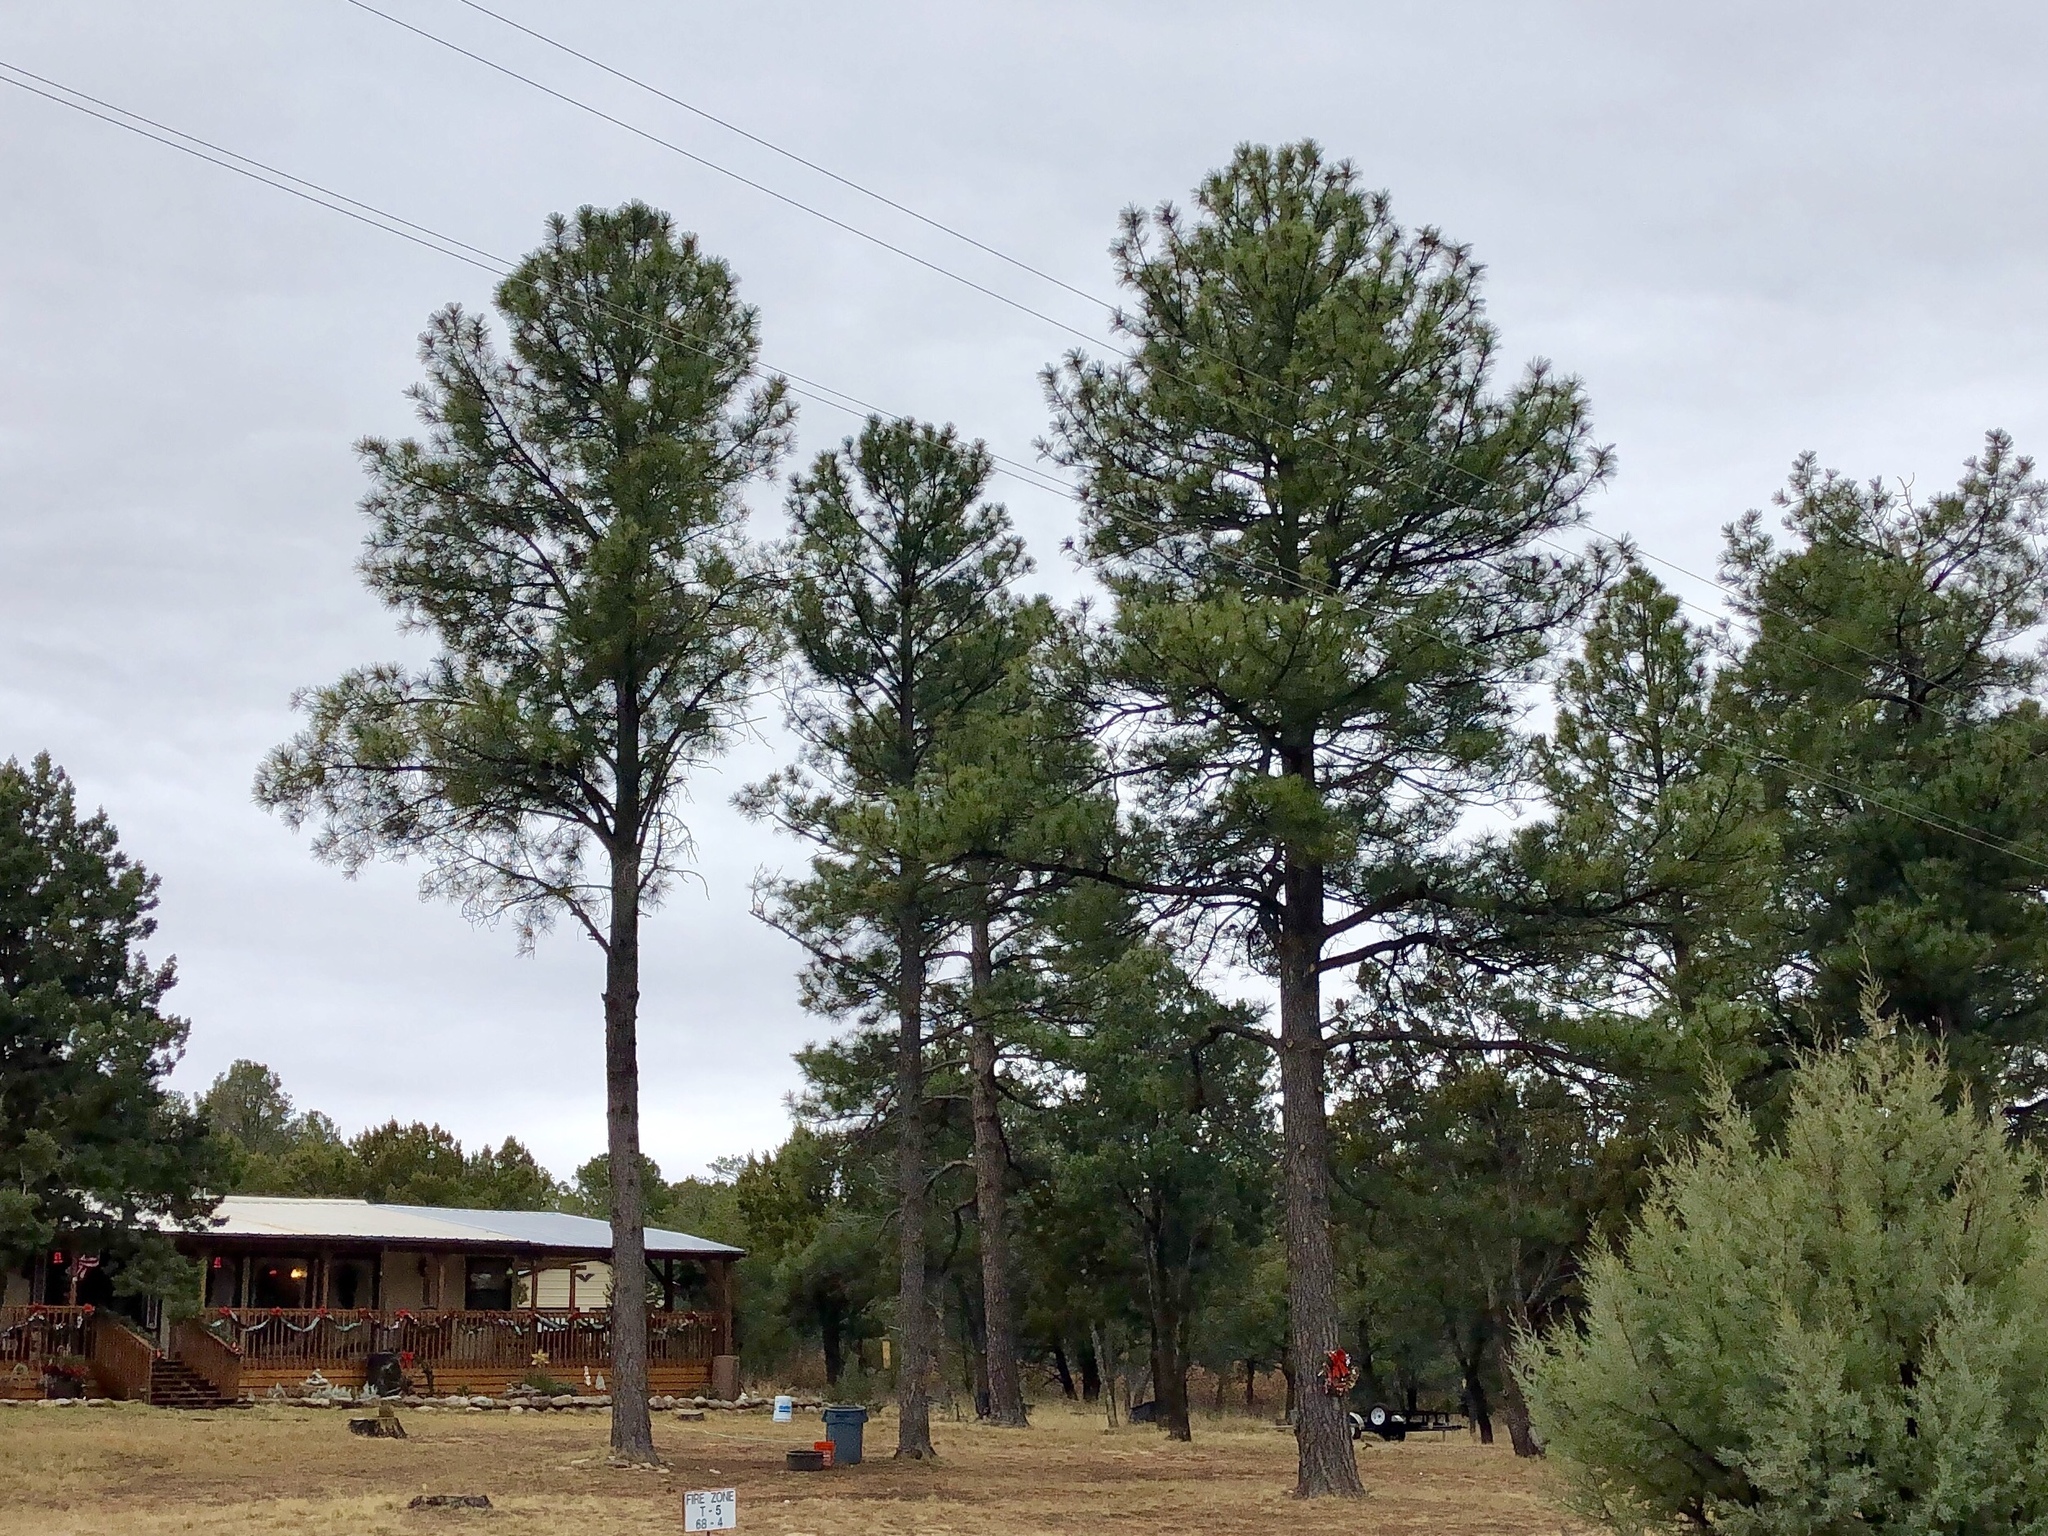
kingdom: Plantae
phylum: Tracheophyta
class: Pinopsida
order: Pinales
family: Pinaceae
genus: Pinus
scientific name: Pinus ponderosa
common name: Western yellow-pine
